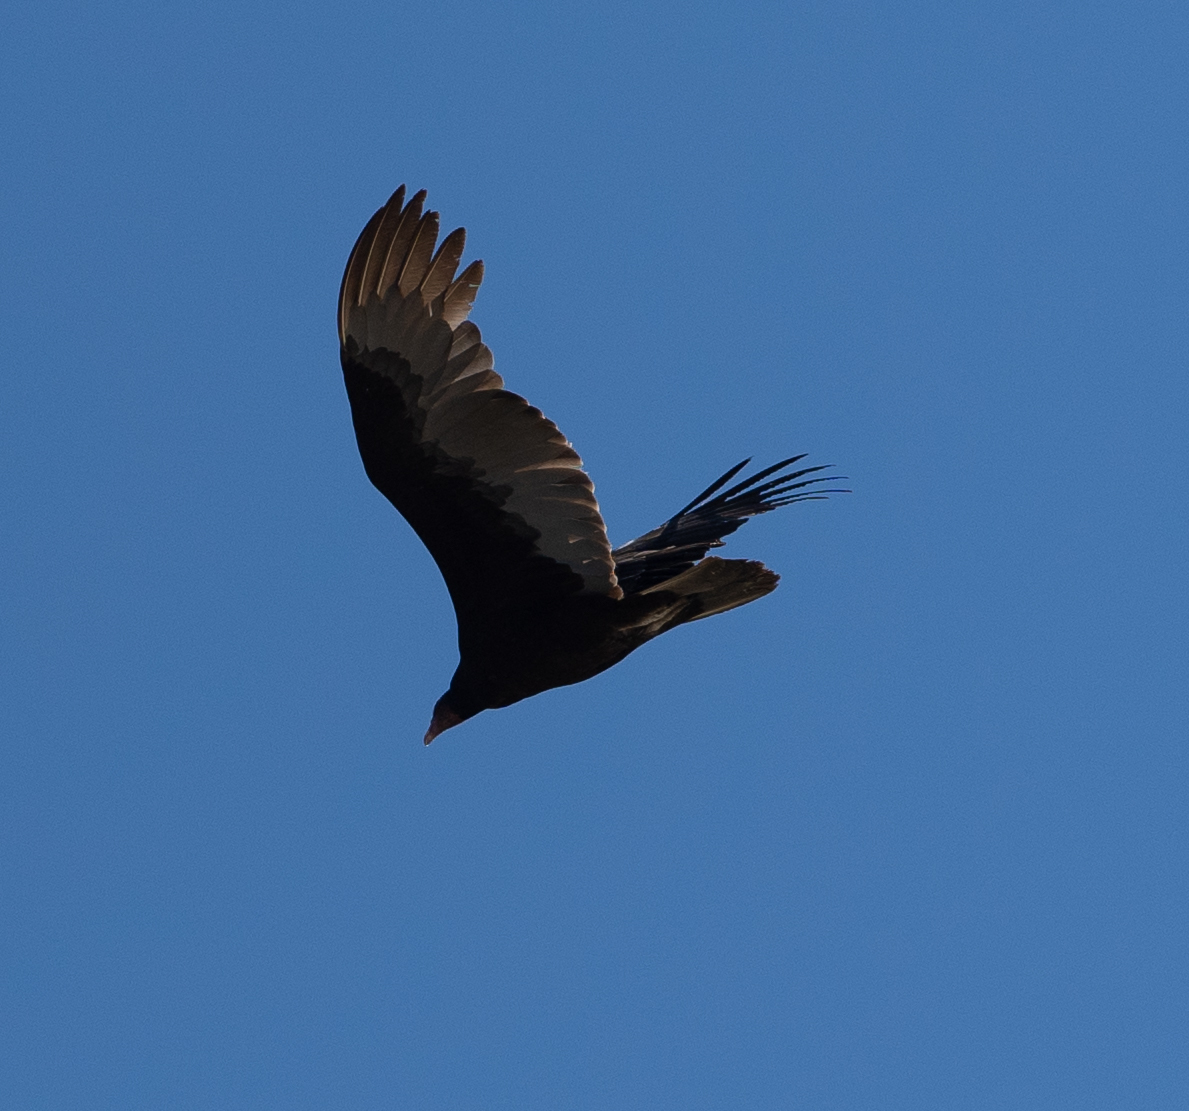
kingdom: Animalia
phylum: Chordata
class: Aves
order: Accipitriformes
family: Cathartidae
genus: Cathartes
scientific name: Cathartes aura
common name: Turkey vulture
